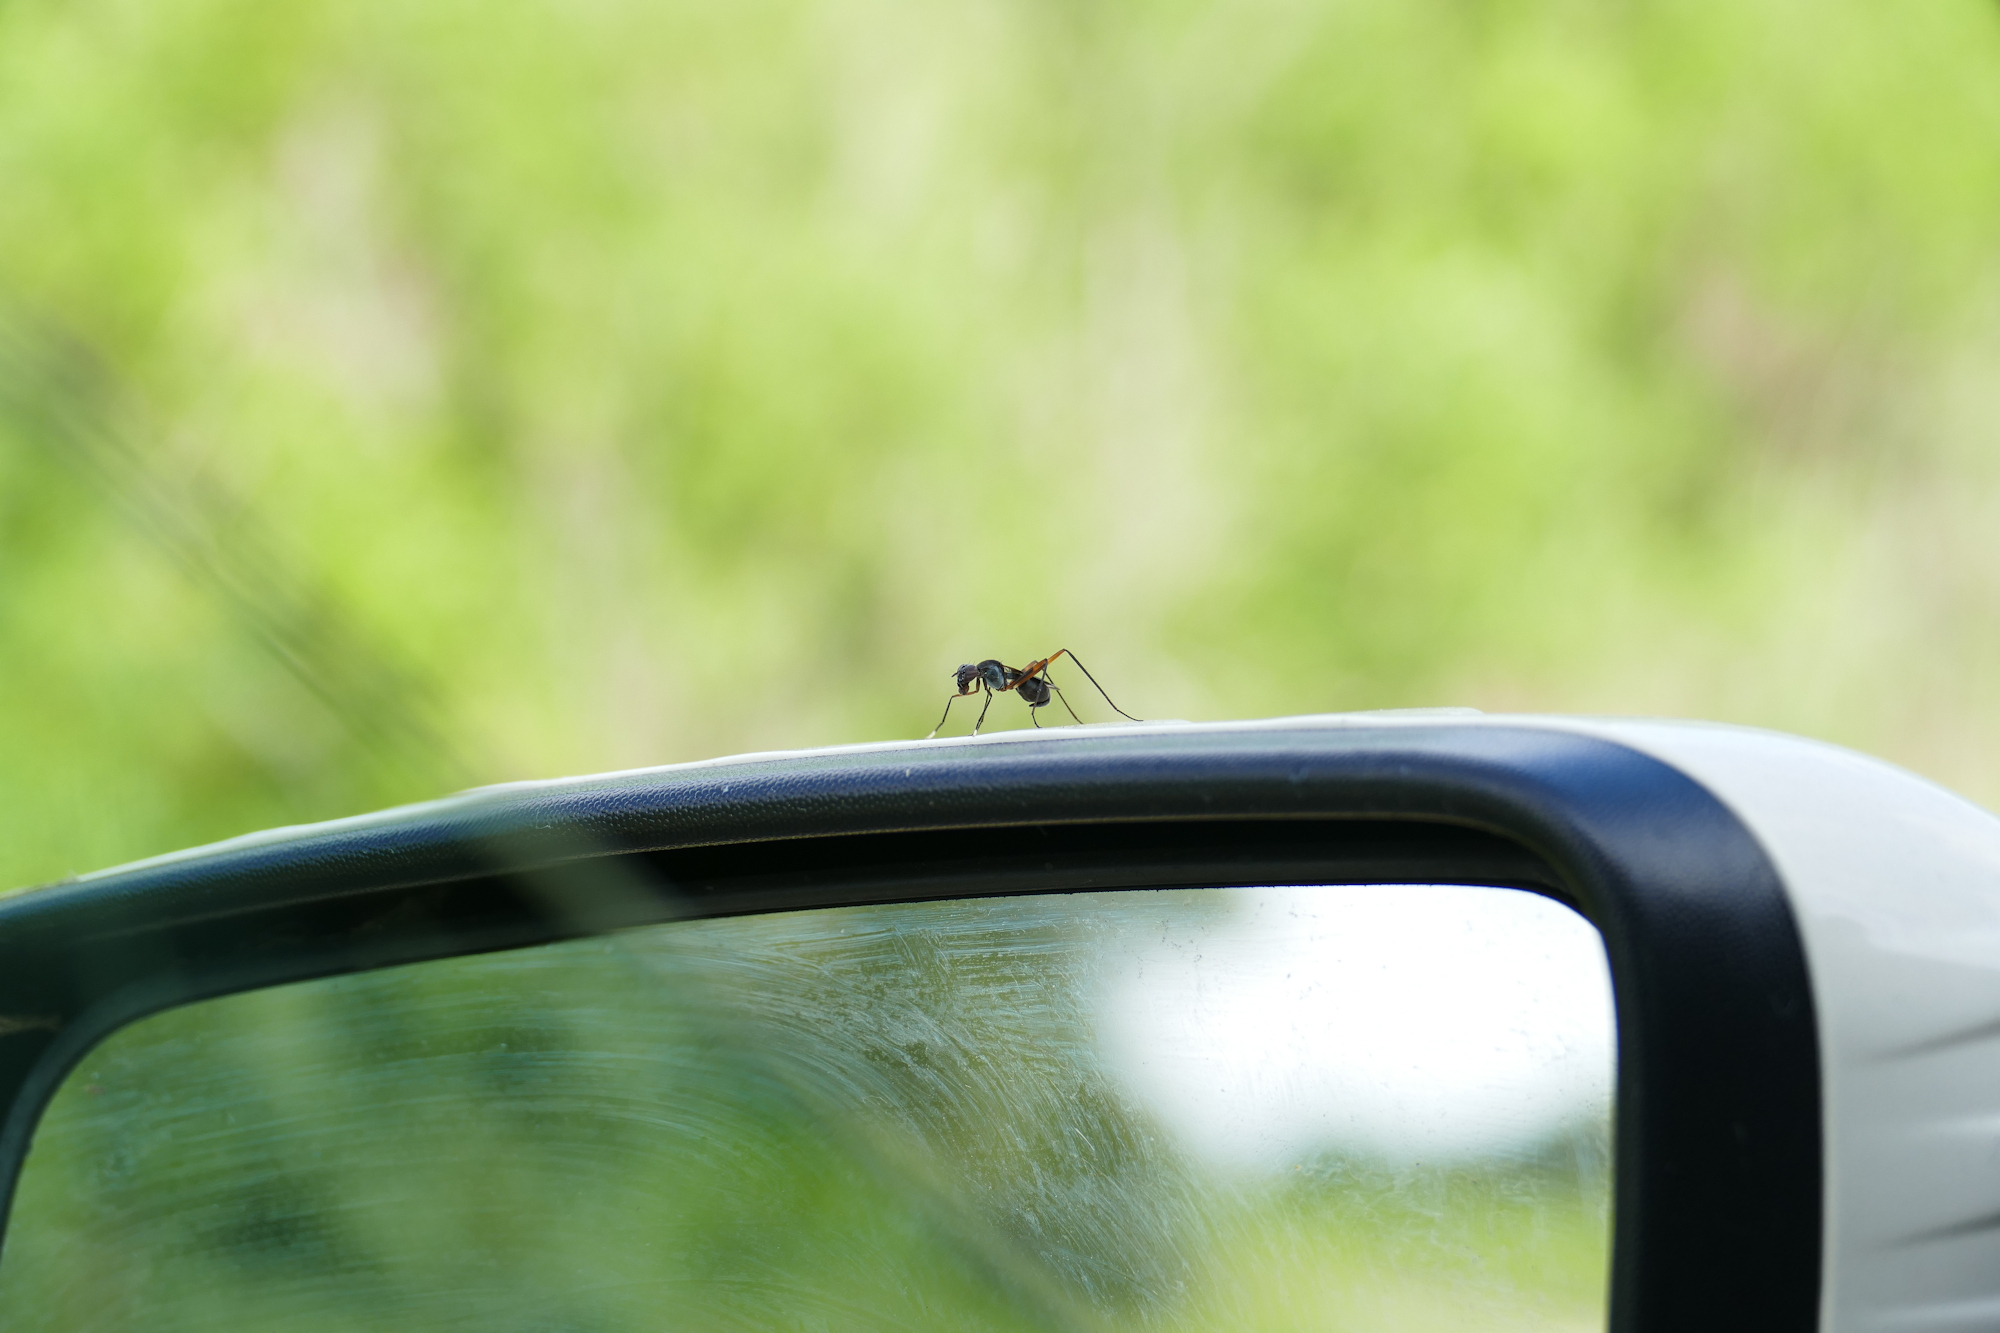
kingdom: Animalia
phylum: Arthropoda
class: Insecta
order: Diptera
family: Micropezidae
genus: Taeniaptera
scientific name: Taeniaptera trivittata
